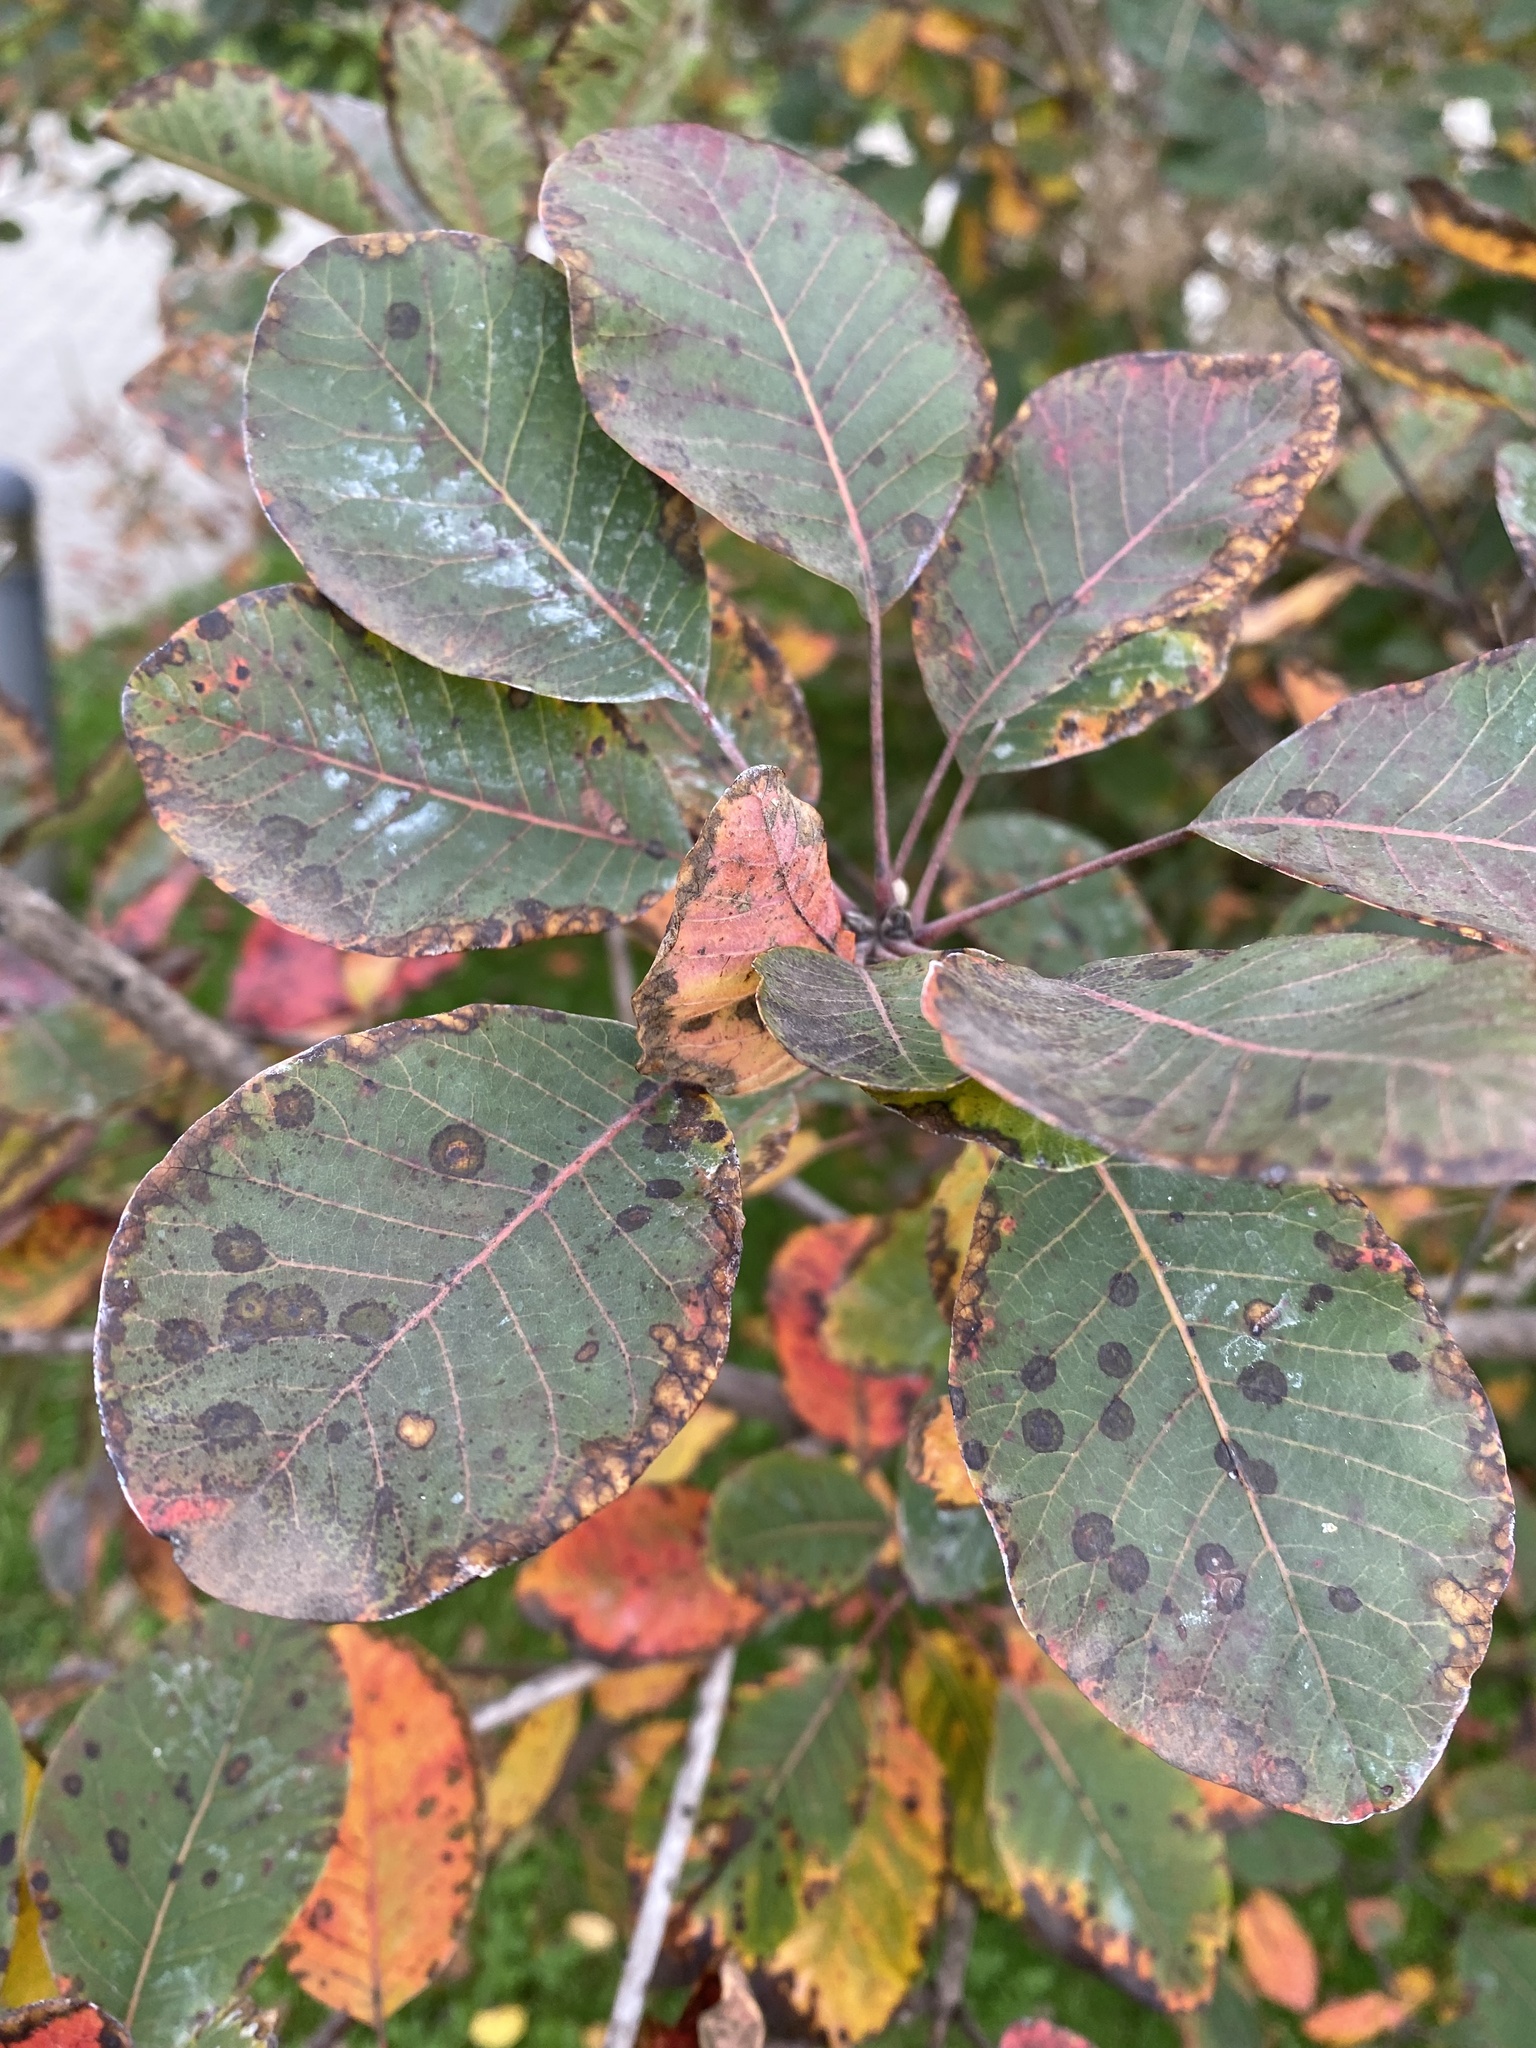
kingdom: Plantae
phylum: Tracheophyta
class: Magnoliopsida
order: Sapindales
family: Anacardiaceae
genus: Cotinus
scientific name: Cotinus coggygria
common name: Smoke-tree
